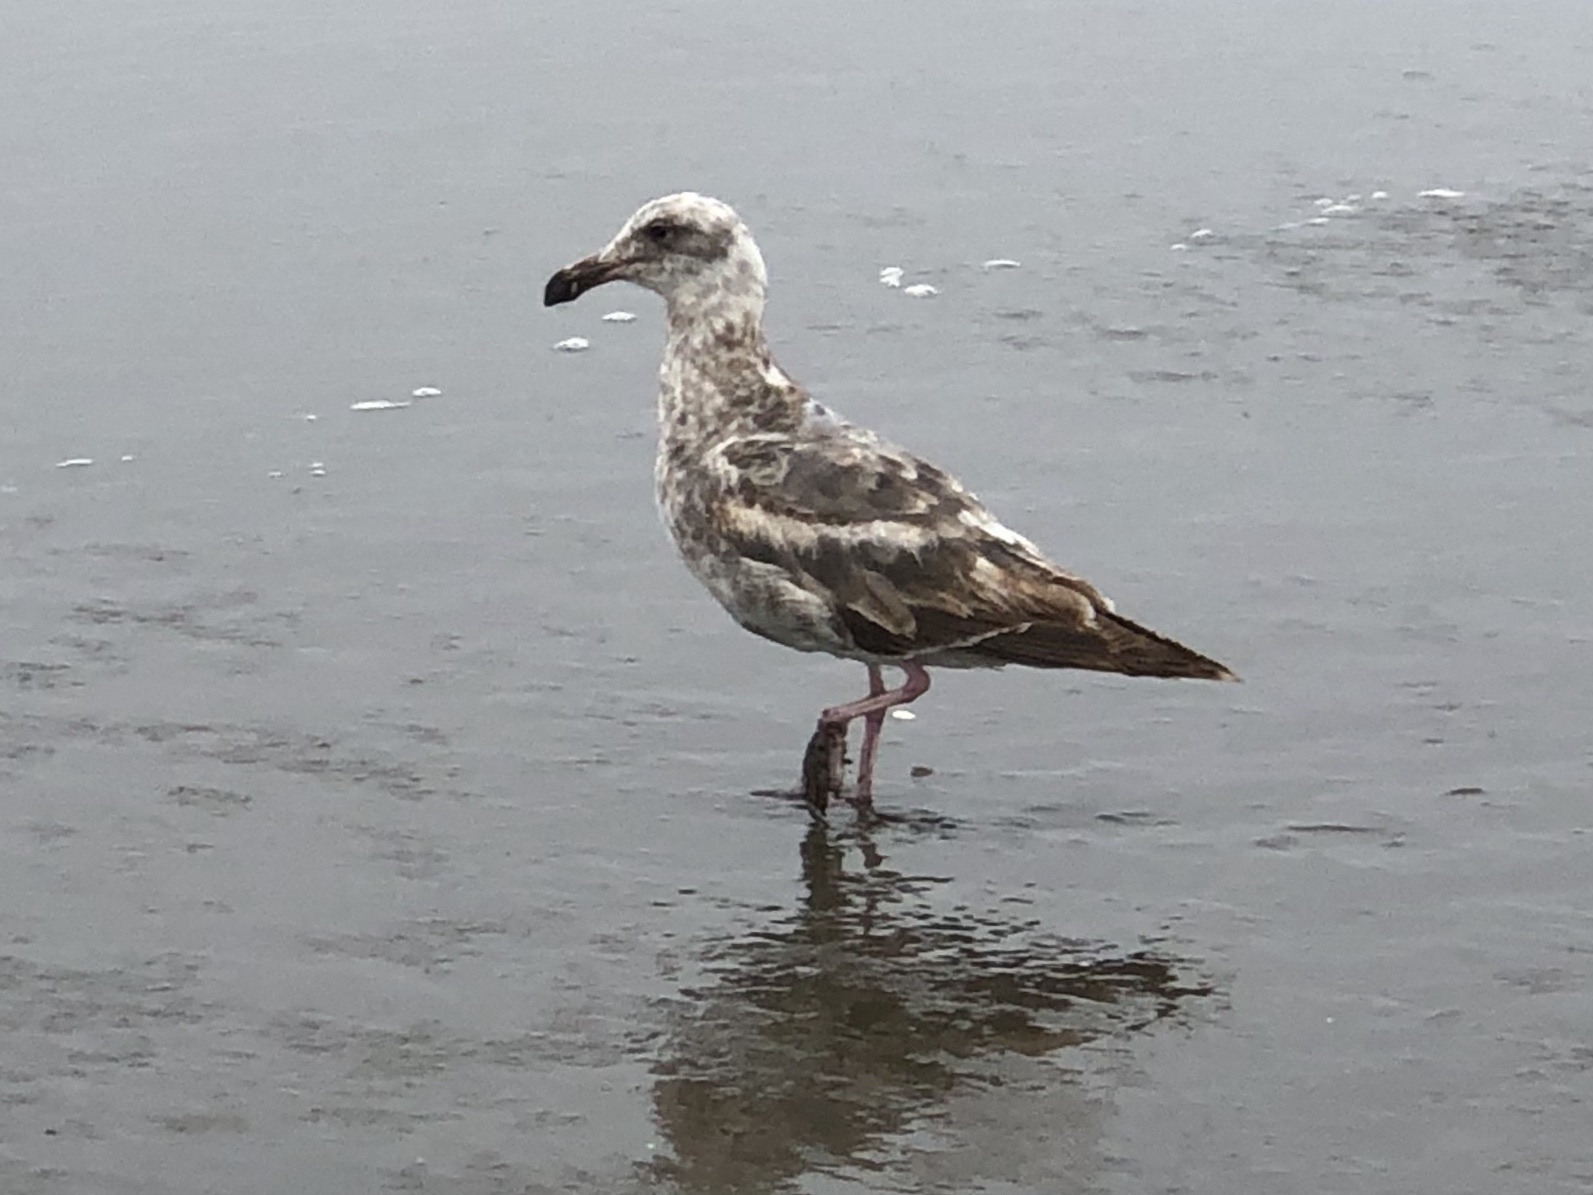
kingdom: Animalia
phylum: Chordata
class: Aves
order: Charadriiformes
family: Laridae
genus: Larus
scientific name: Larus occidentalis
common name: Western gull
